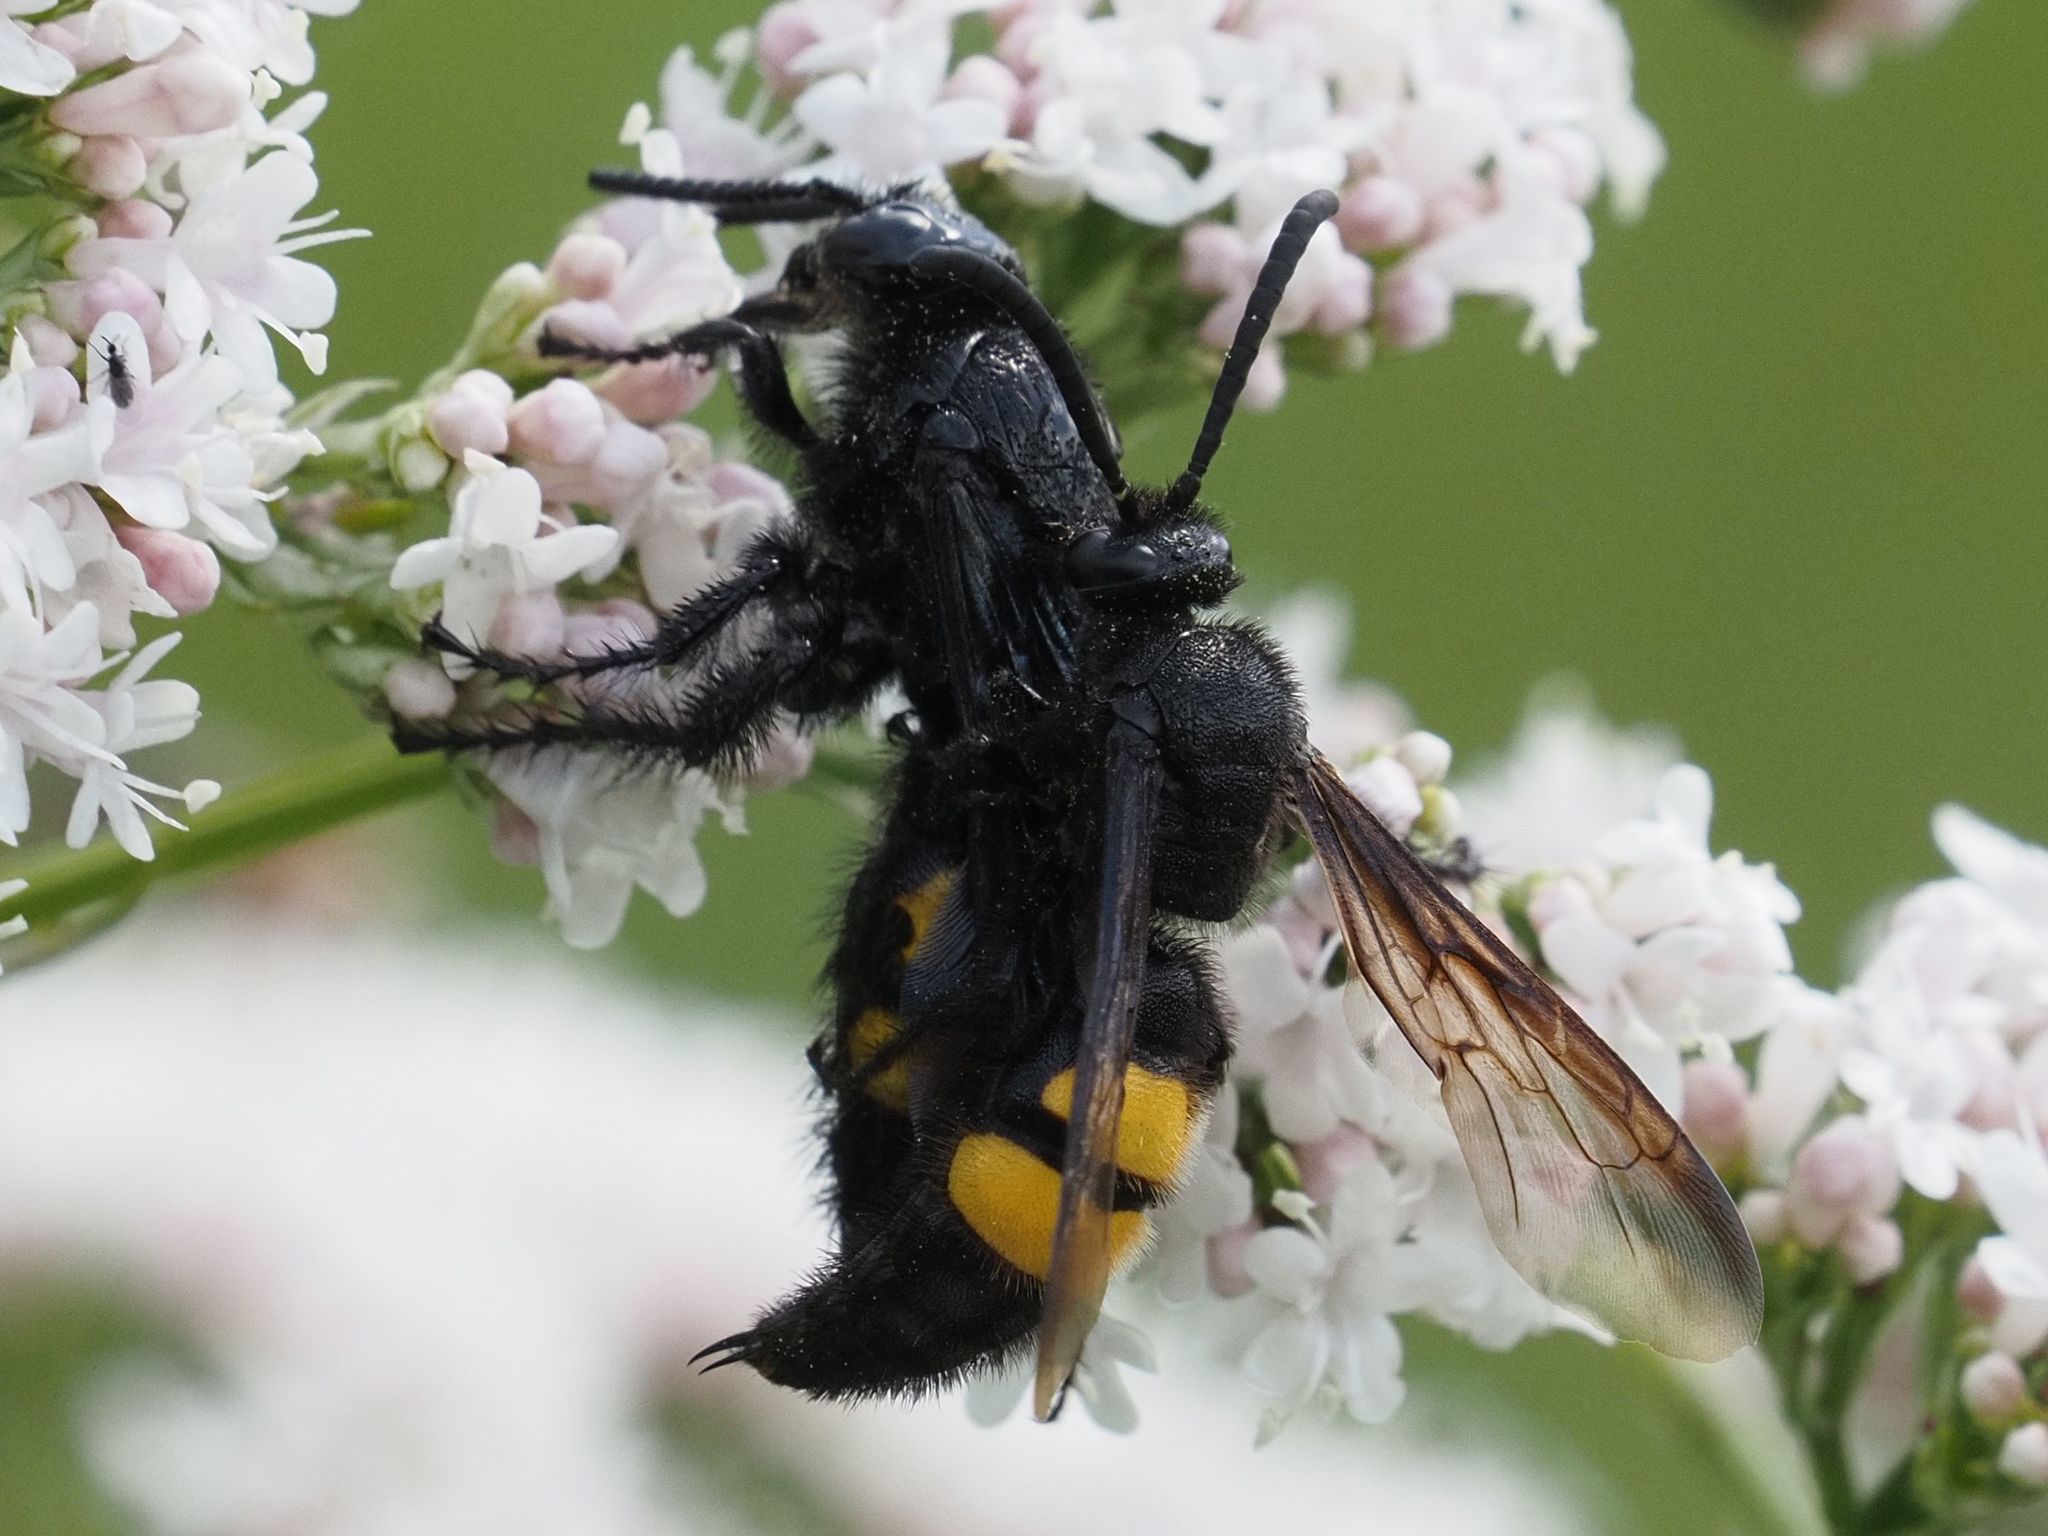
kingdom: Animalia
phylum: Arthropoda
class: Insecta
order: Hymenoptera
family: Scoliidae
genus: Scolia
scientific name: Scolia hirta
